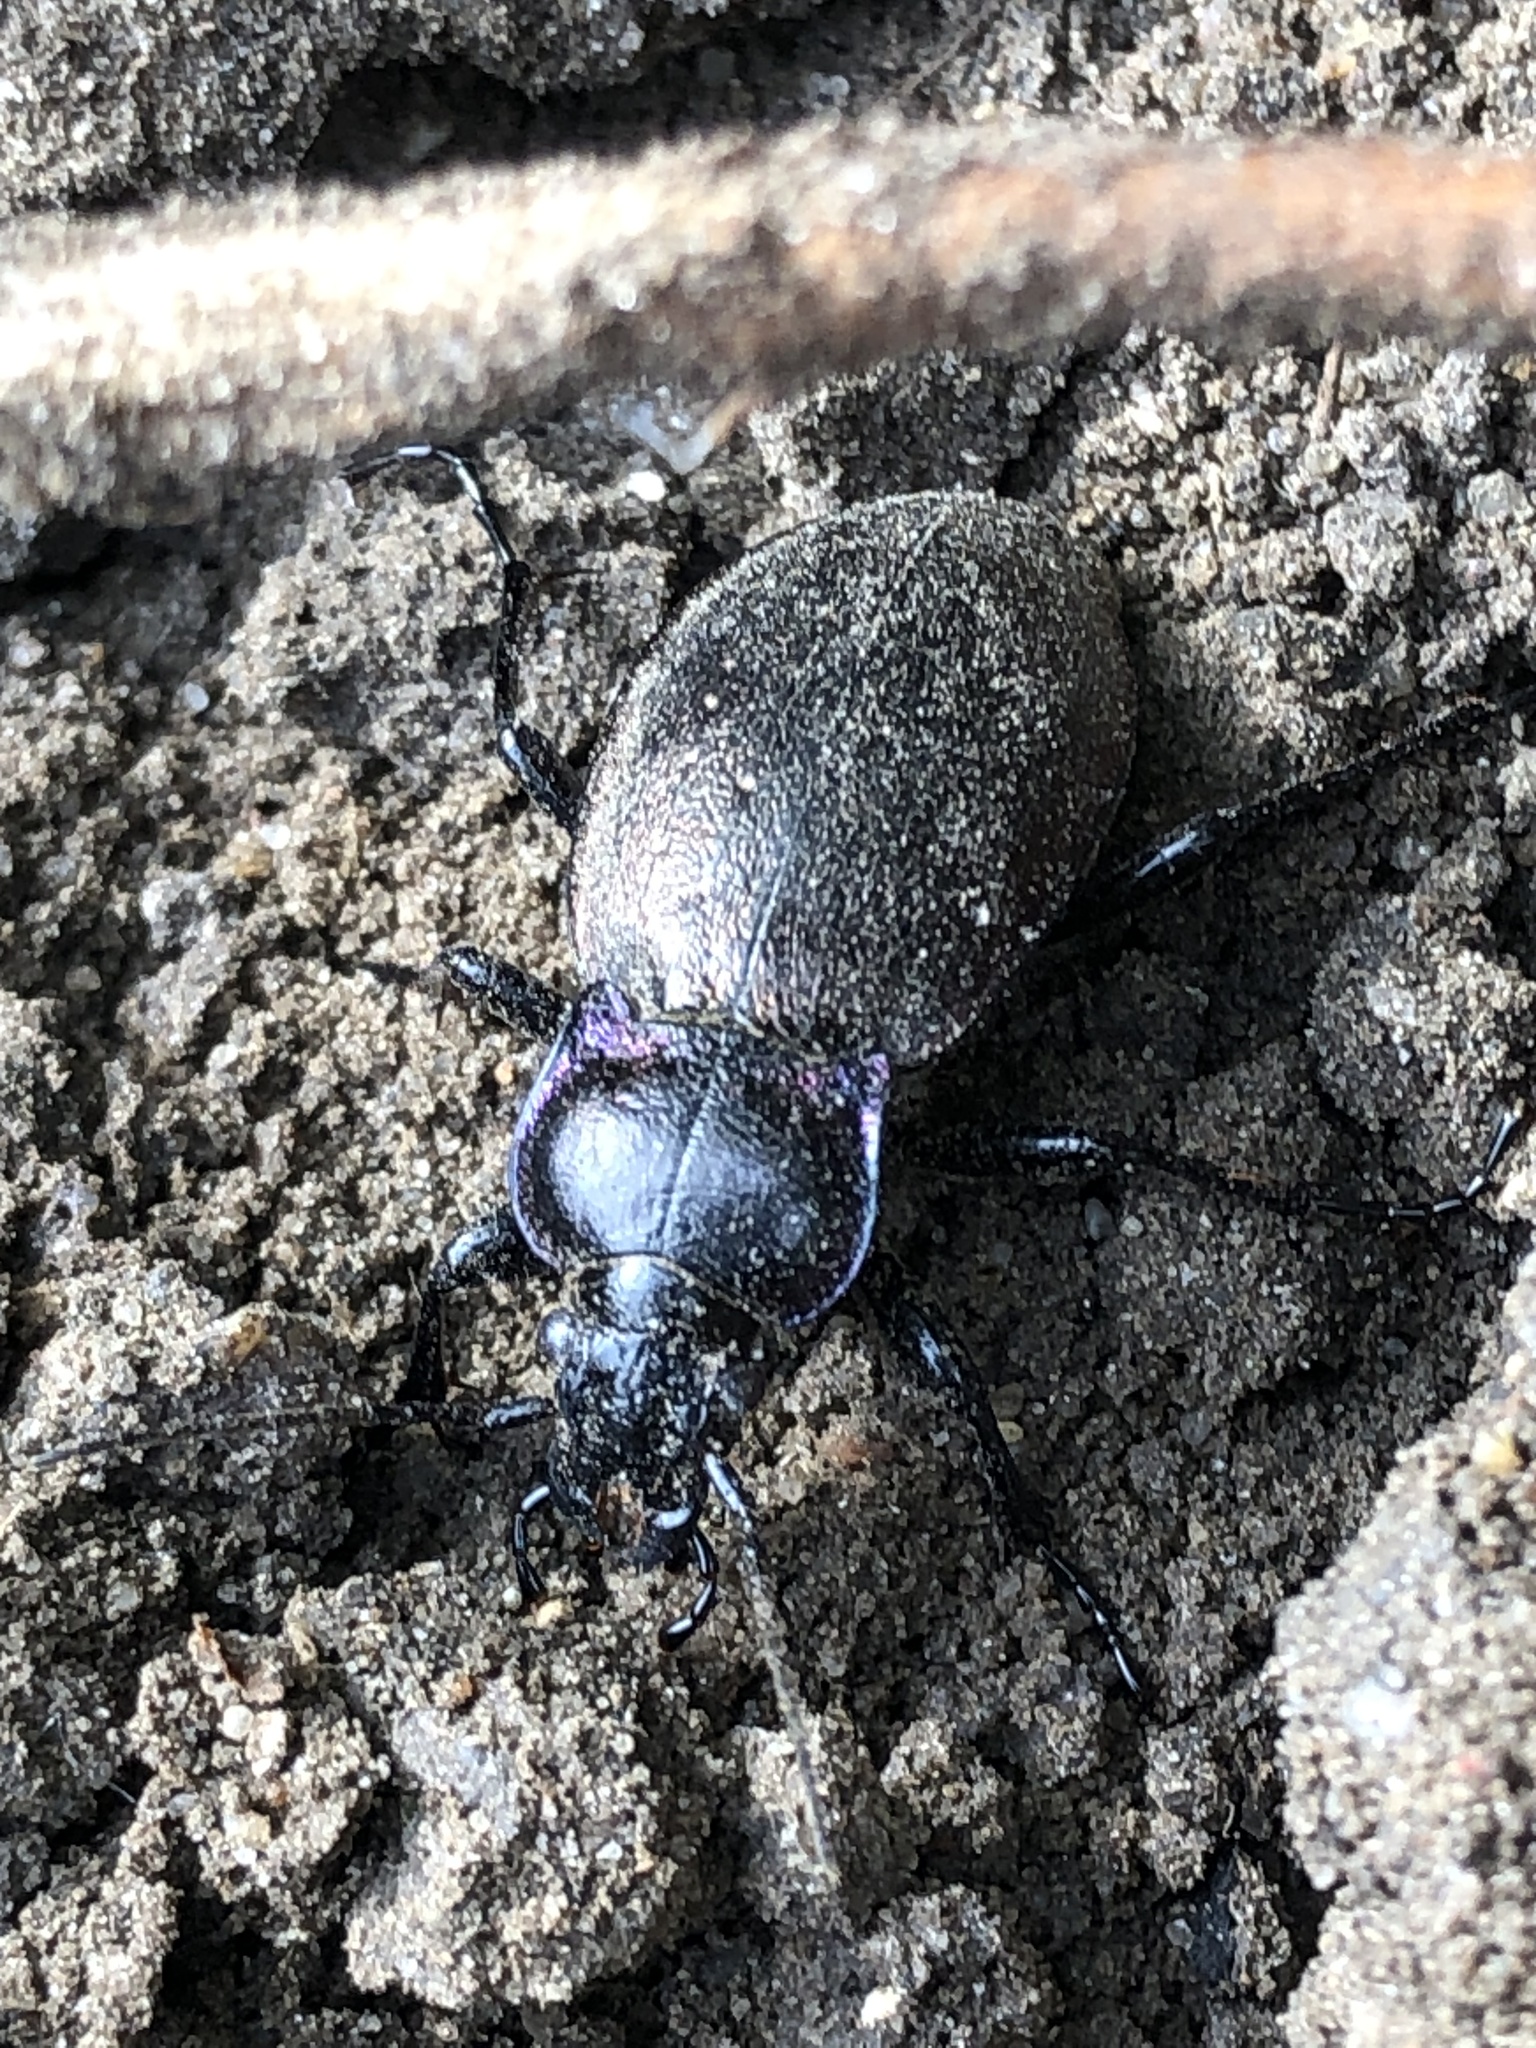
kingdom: Animalia
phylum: Arthropoda
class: Insecta
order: Coleoptera
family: Carabidae
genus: Carabus
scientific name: Carabus nemoralis
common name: European ground beetle
